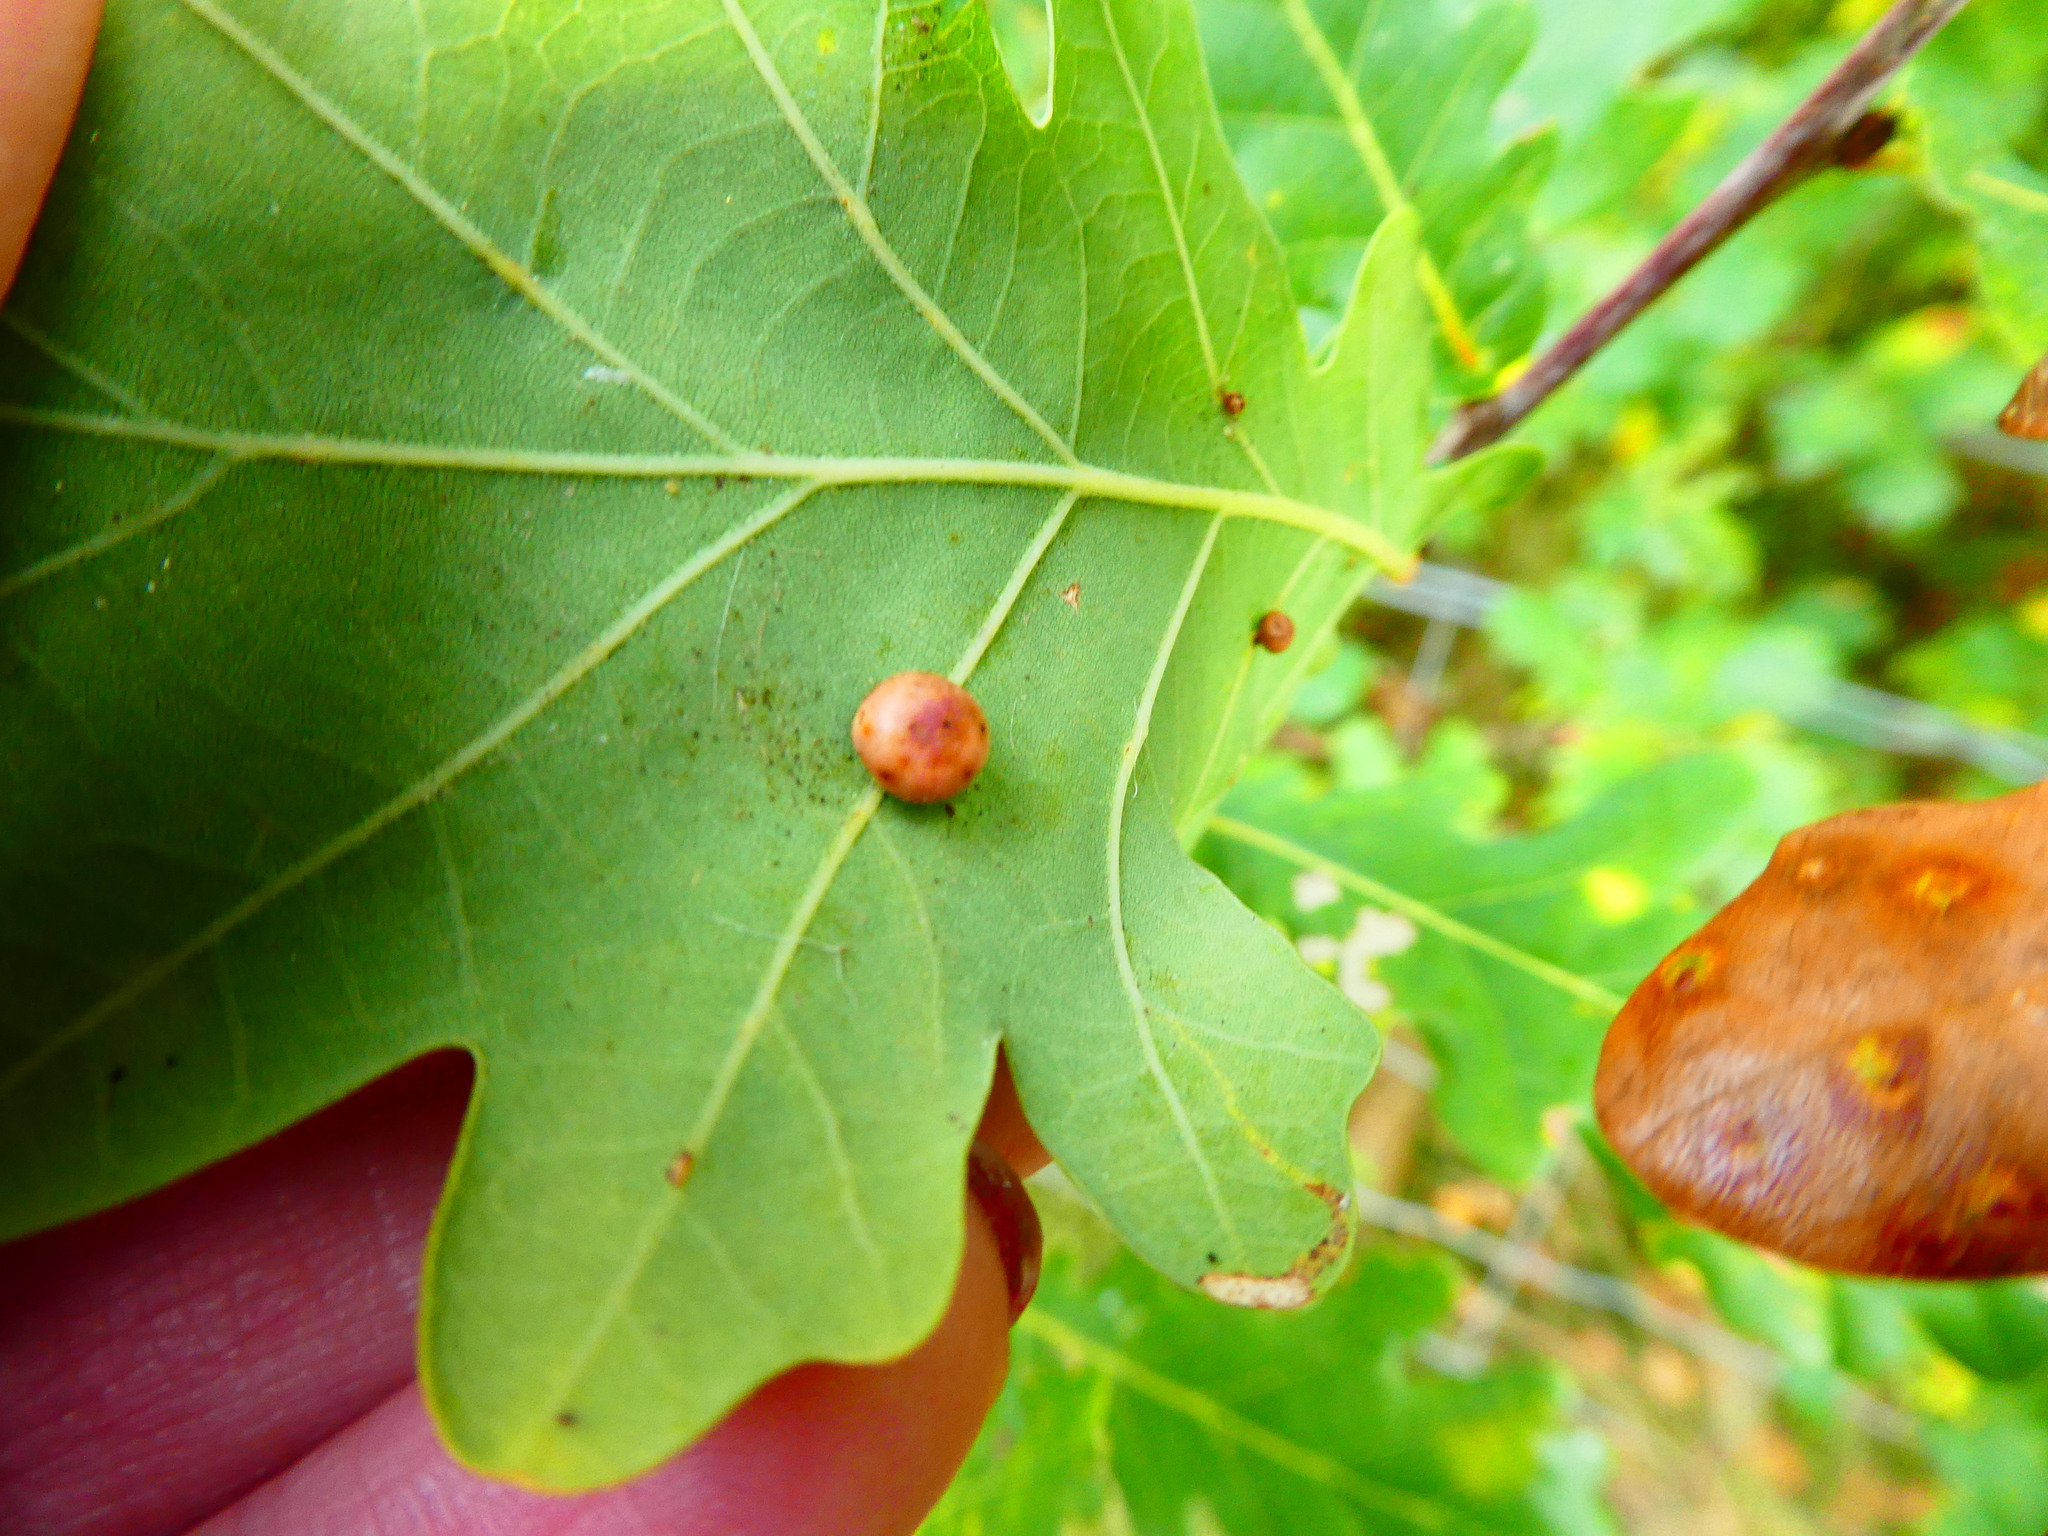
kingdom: Animalia
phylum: Arthropoda
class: Insecta
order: Hymenoptera
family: Cynipidae
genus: Neuroterus
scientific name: Neuroterus anthracinus
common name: Oyster gall
